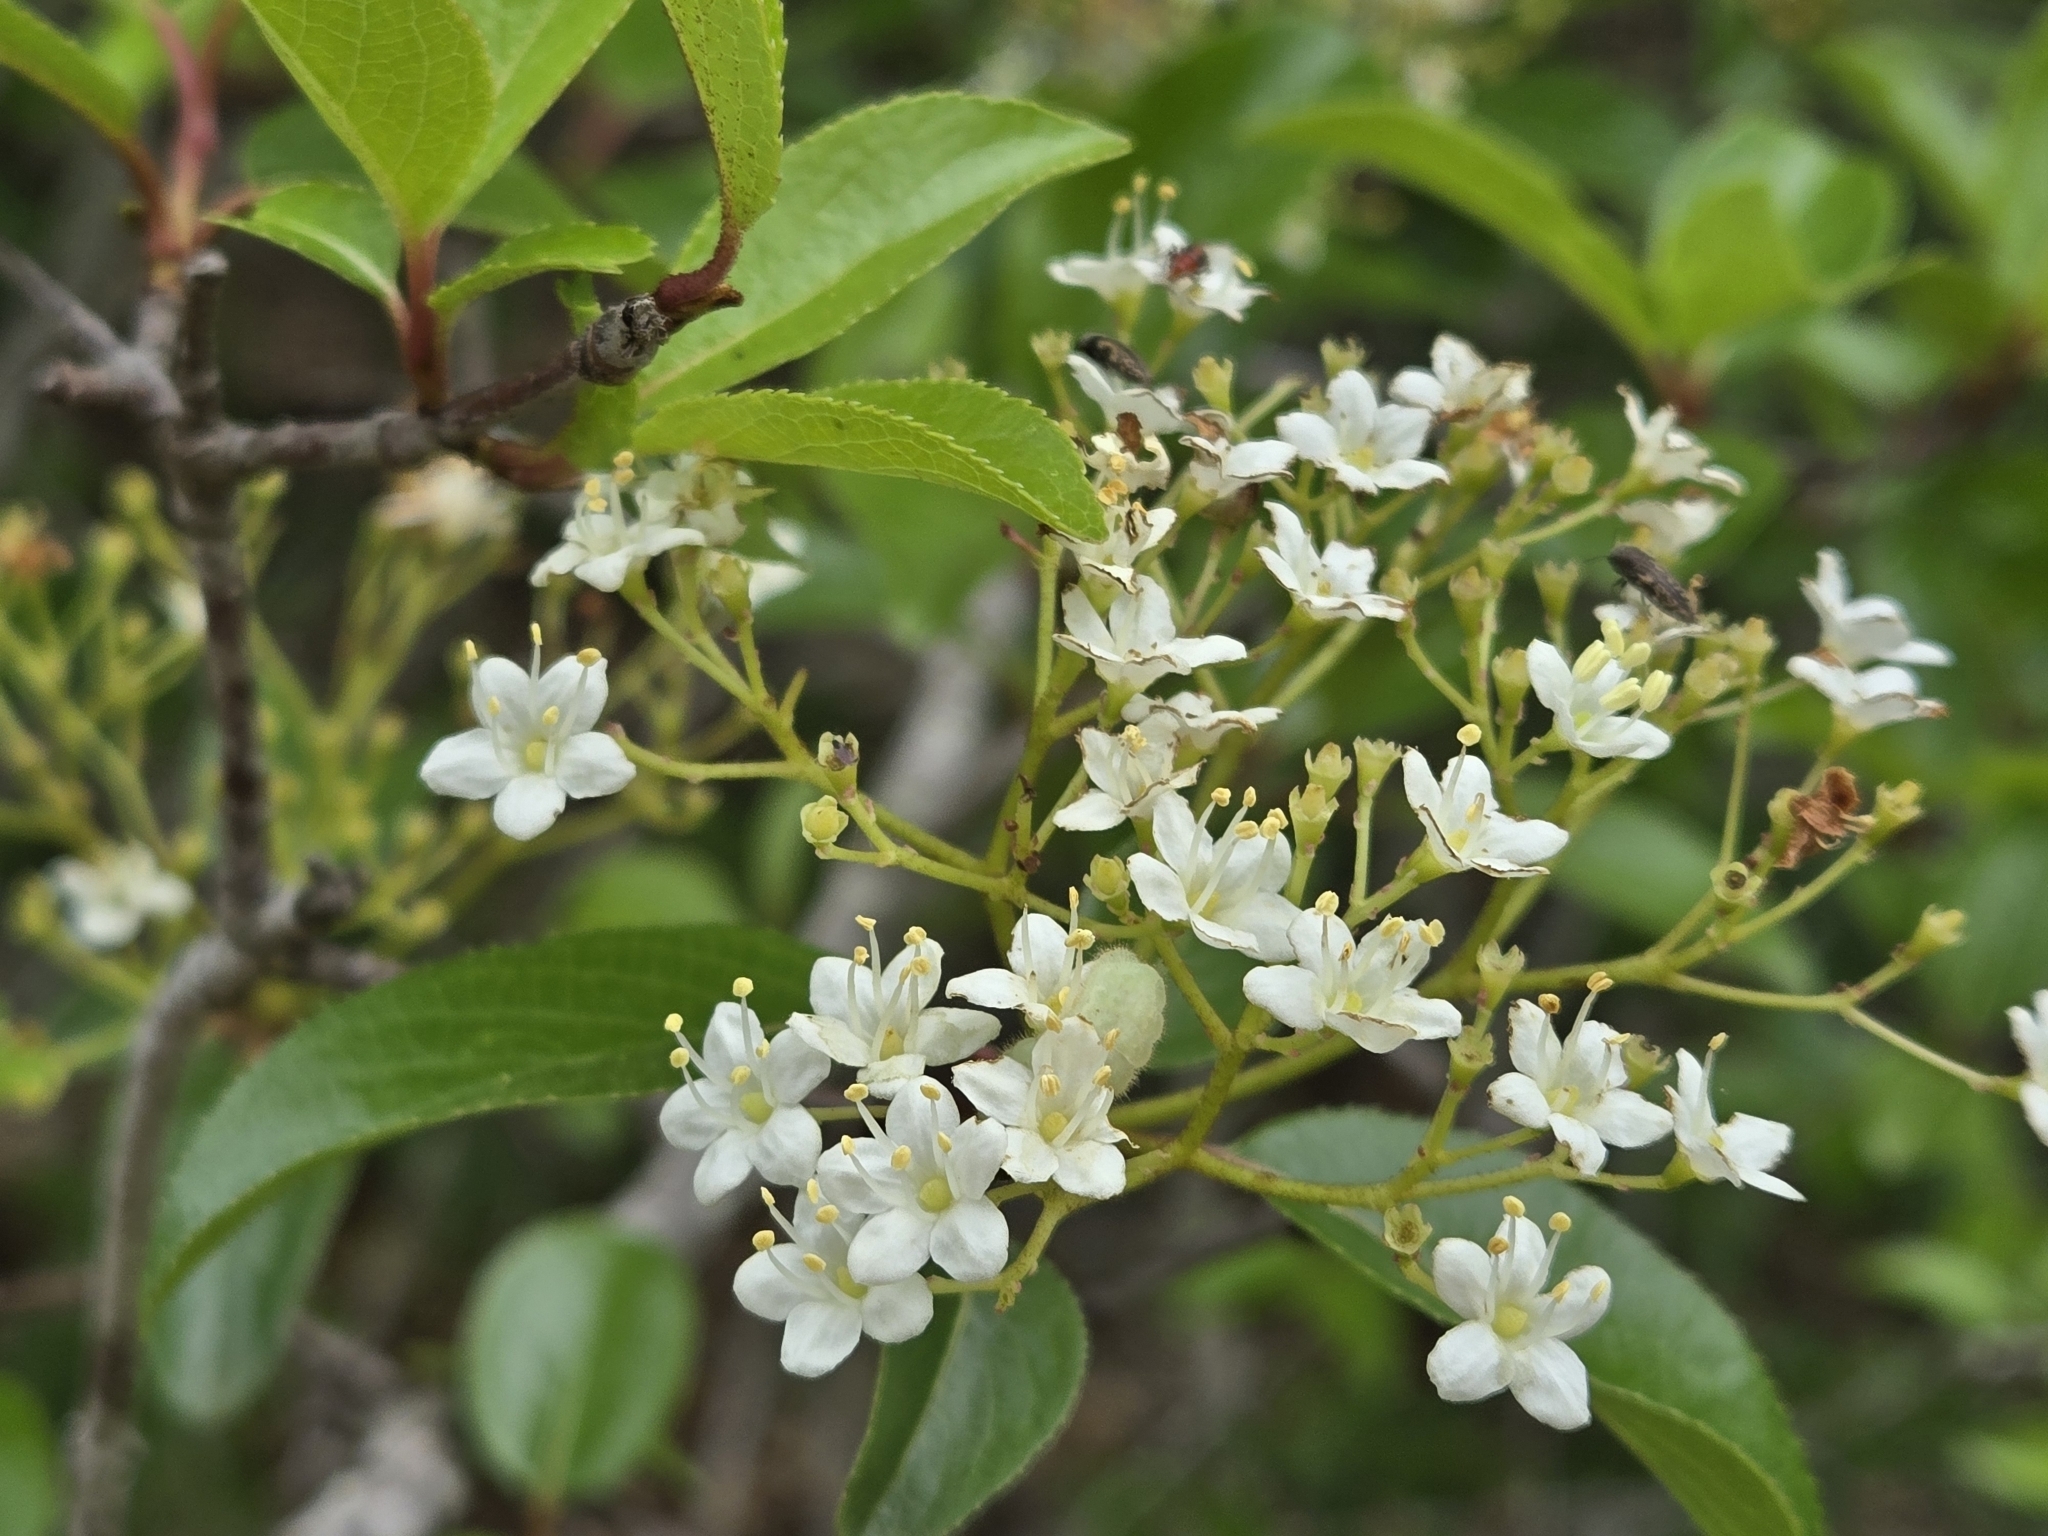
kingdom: Plantae
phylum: Tracheophyta
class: Magnoliopsida
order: Dipsacales
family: Viburnaceae
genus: Viburnum
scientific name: Viburnum rufidulum
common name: Blue haw
